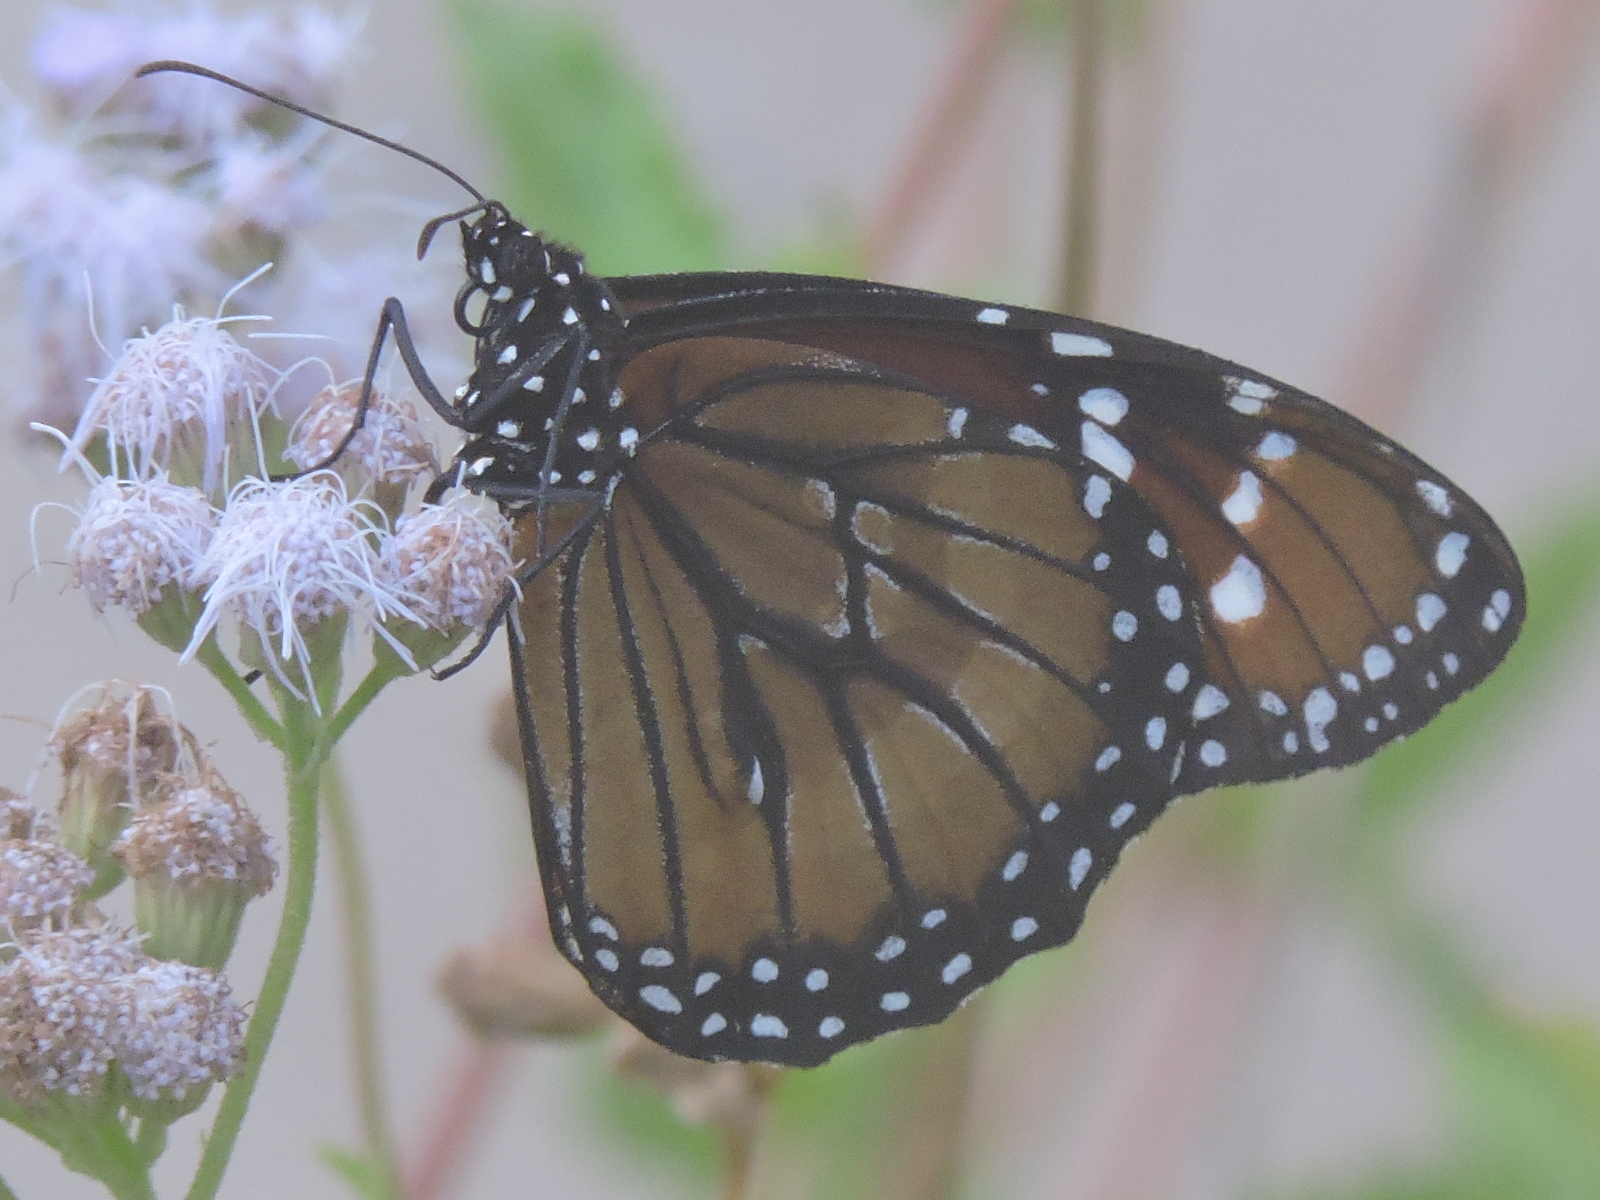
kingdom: Animalia
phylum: Arthropoda
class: Insecta
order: Lepidoptera
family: Nymphalidae
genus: Danaus
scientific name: Danaus eresimus
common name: Soldier
